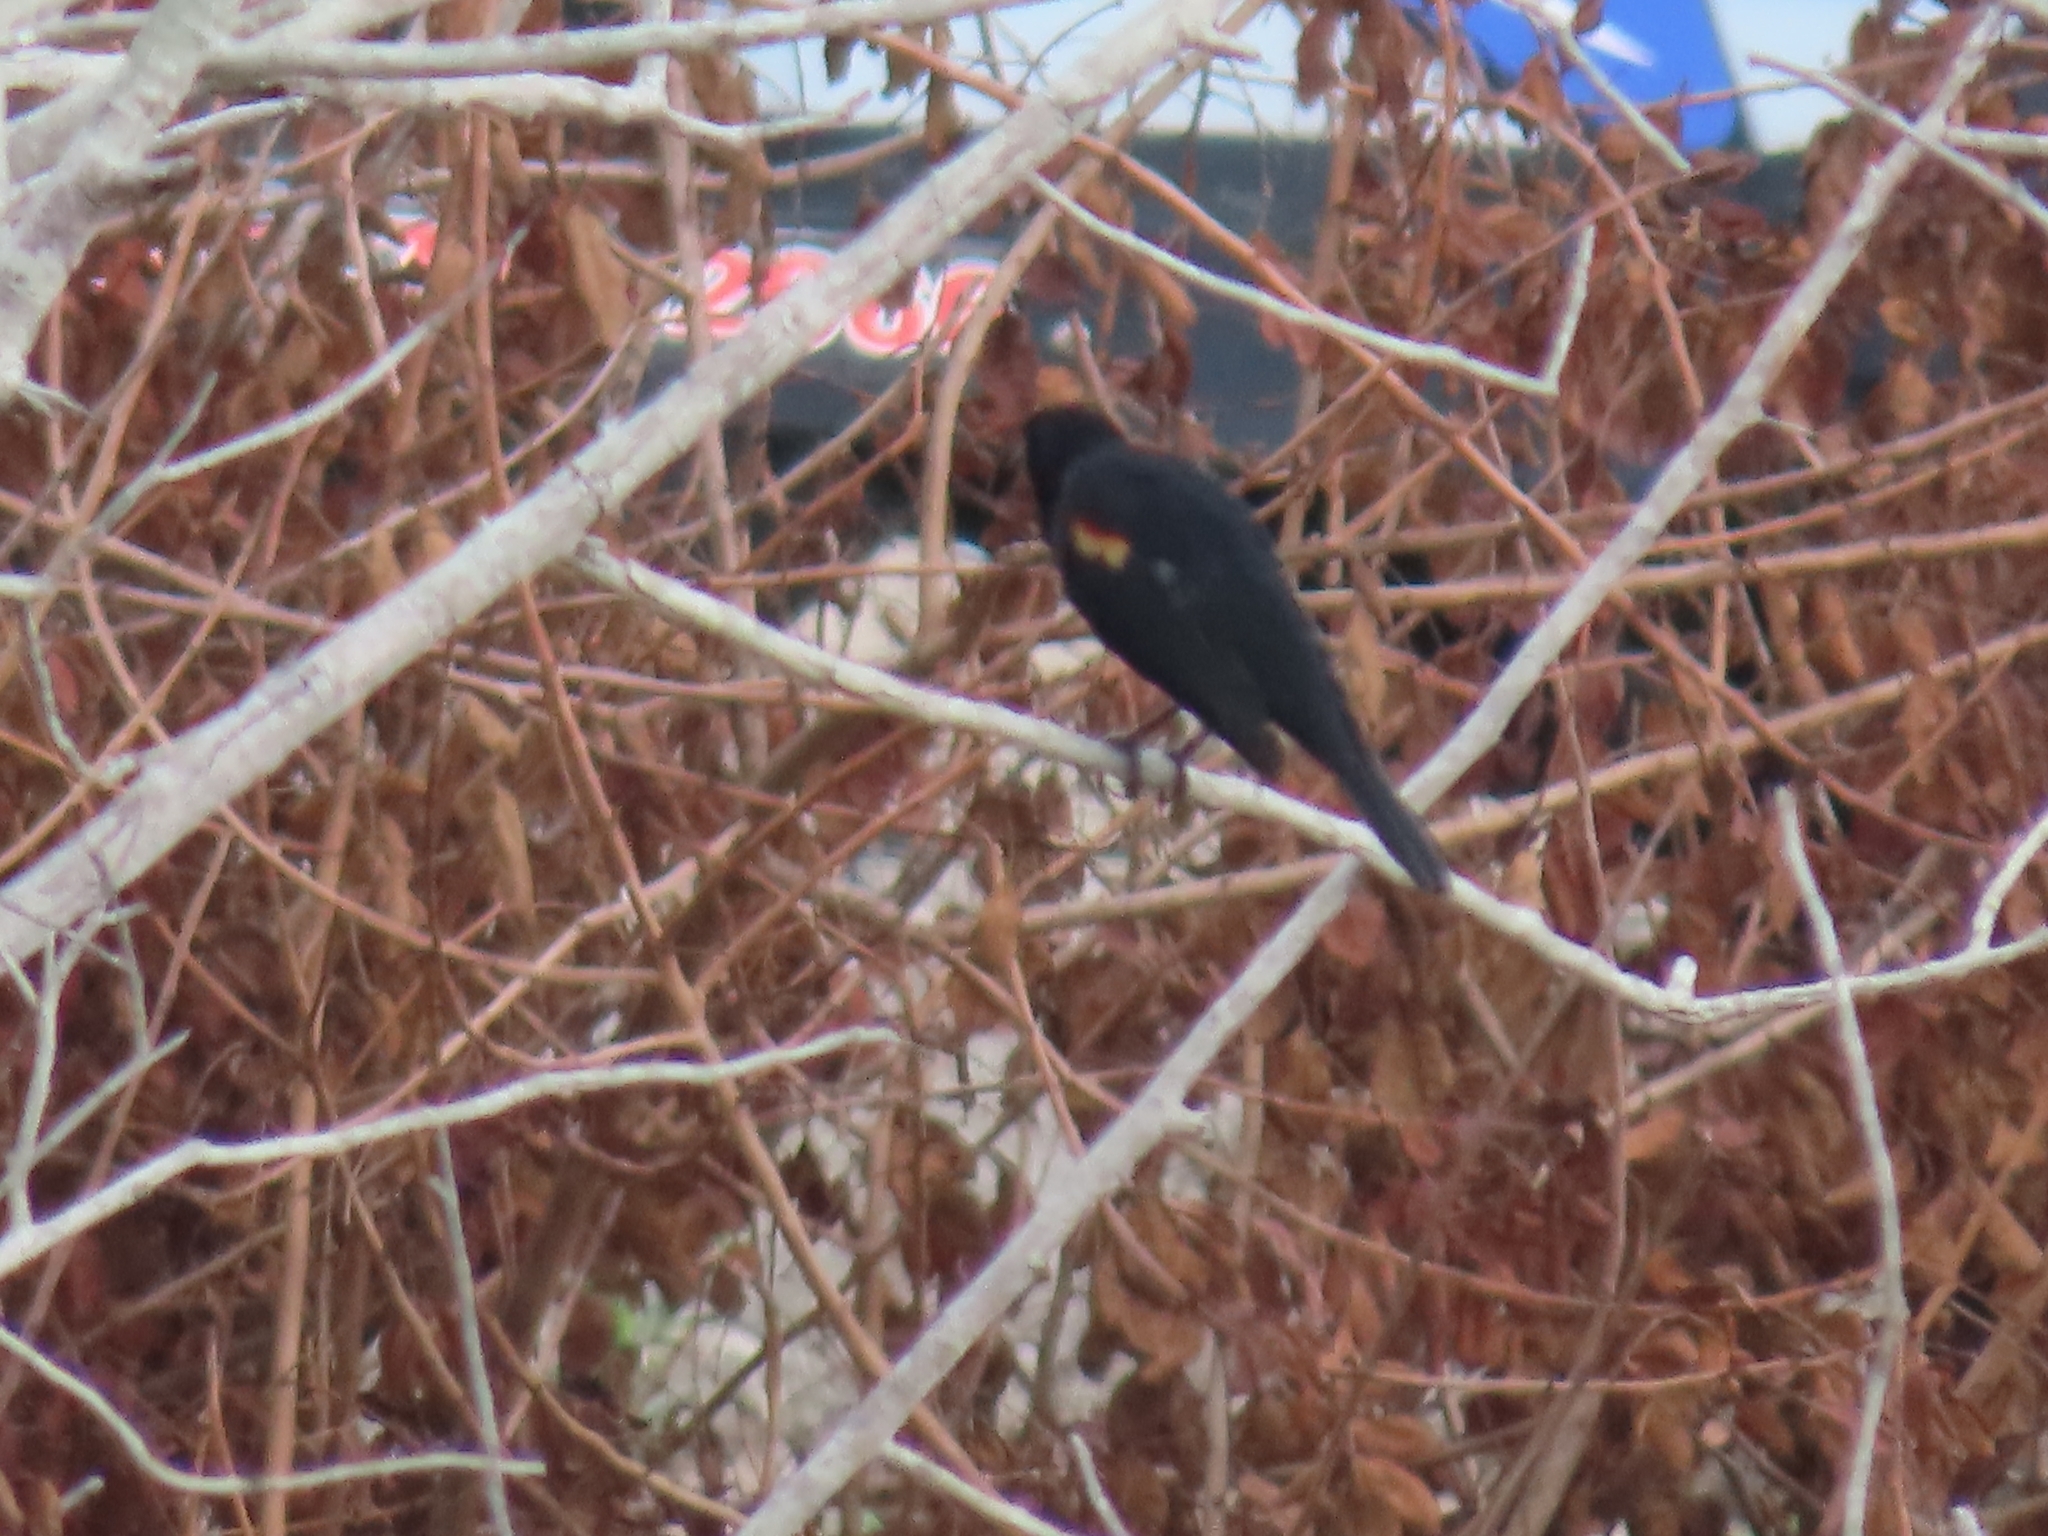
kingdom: Animalia
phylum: Chordata
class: Aves
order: Passeriformes
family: Icteridae
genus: Agelaius
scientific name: Agelaius phoeniceus
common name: Red-winged blackbird
